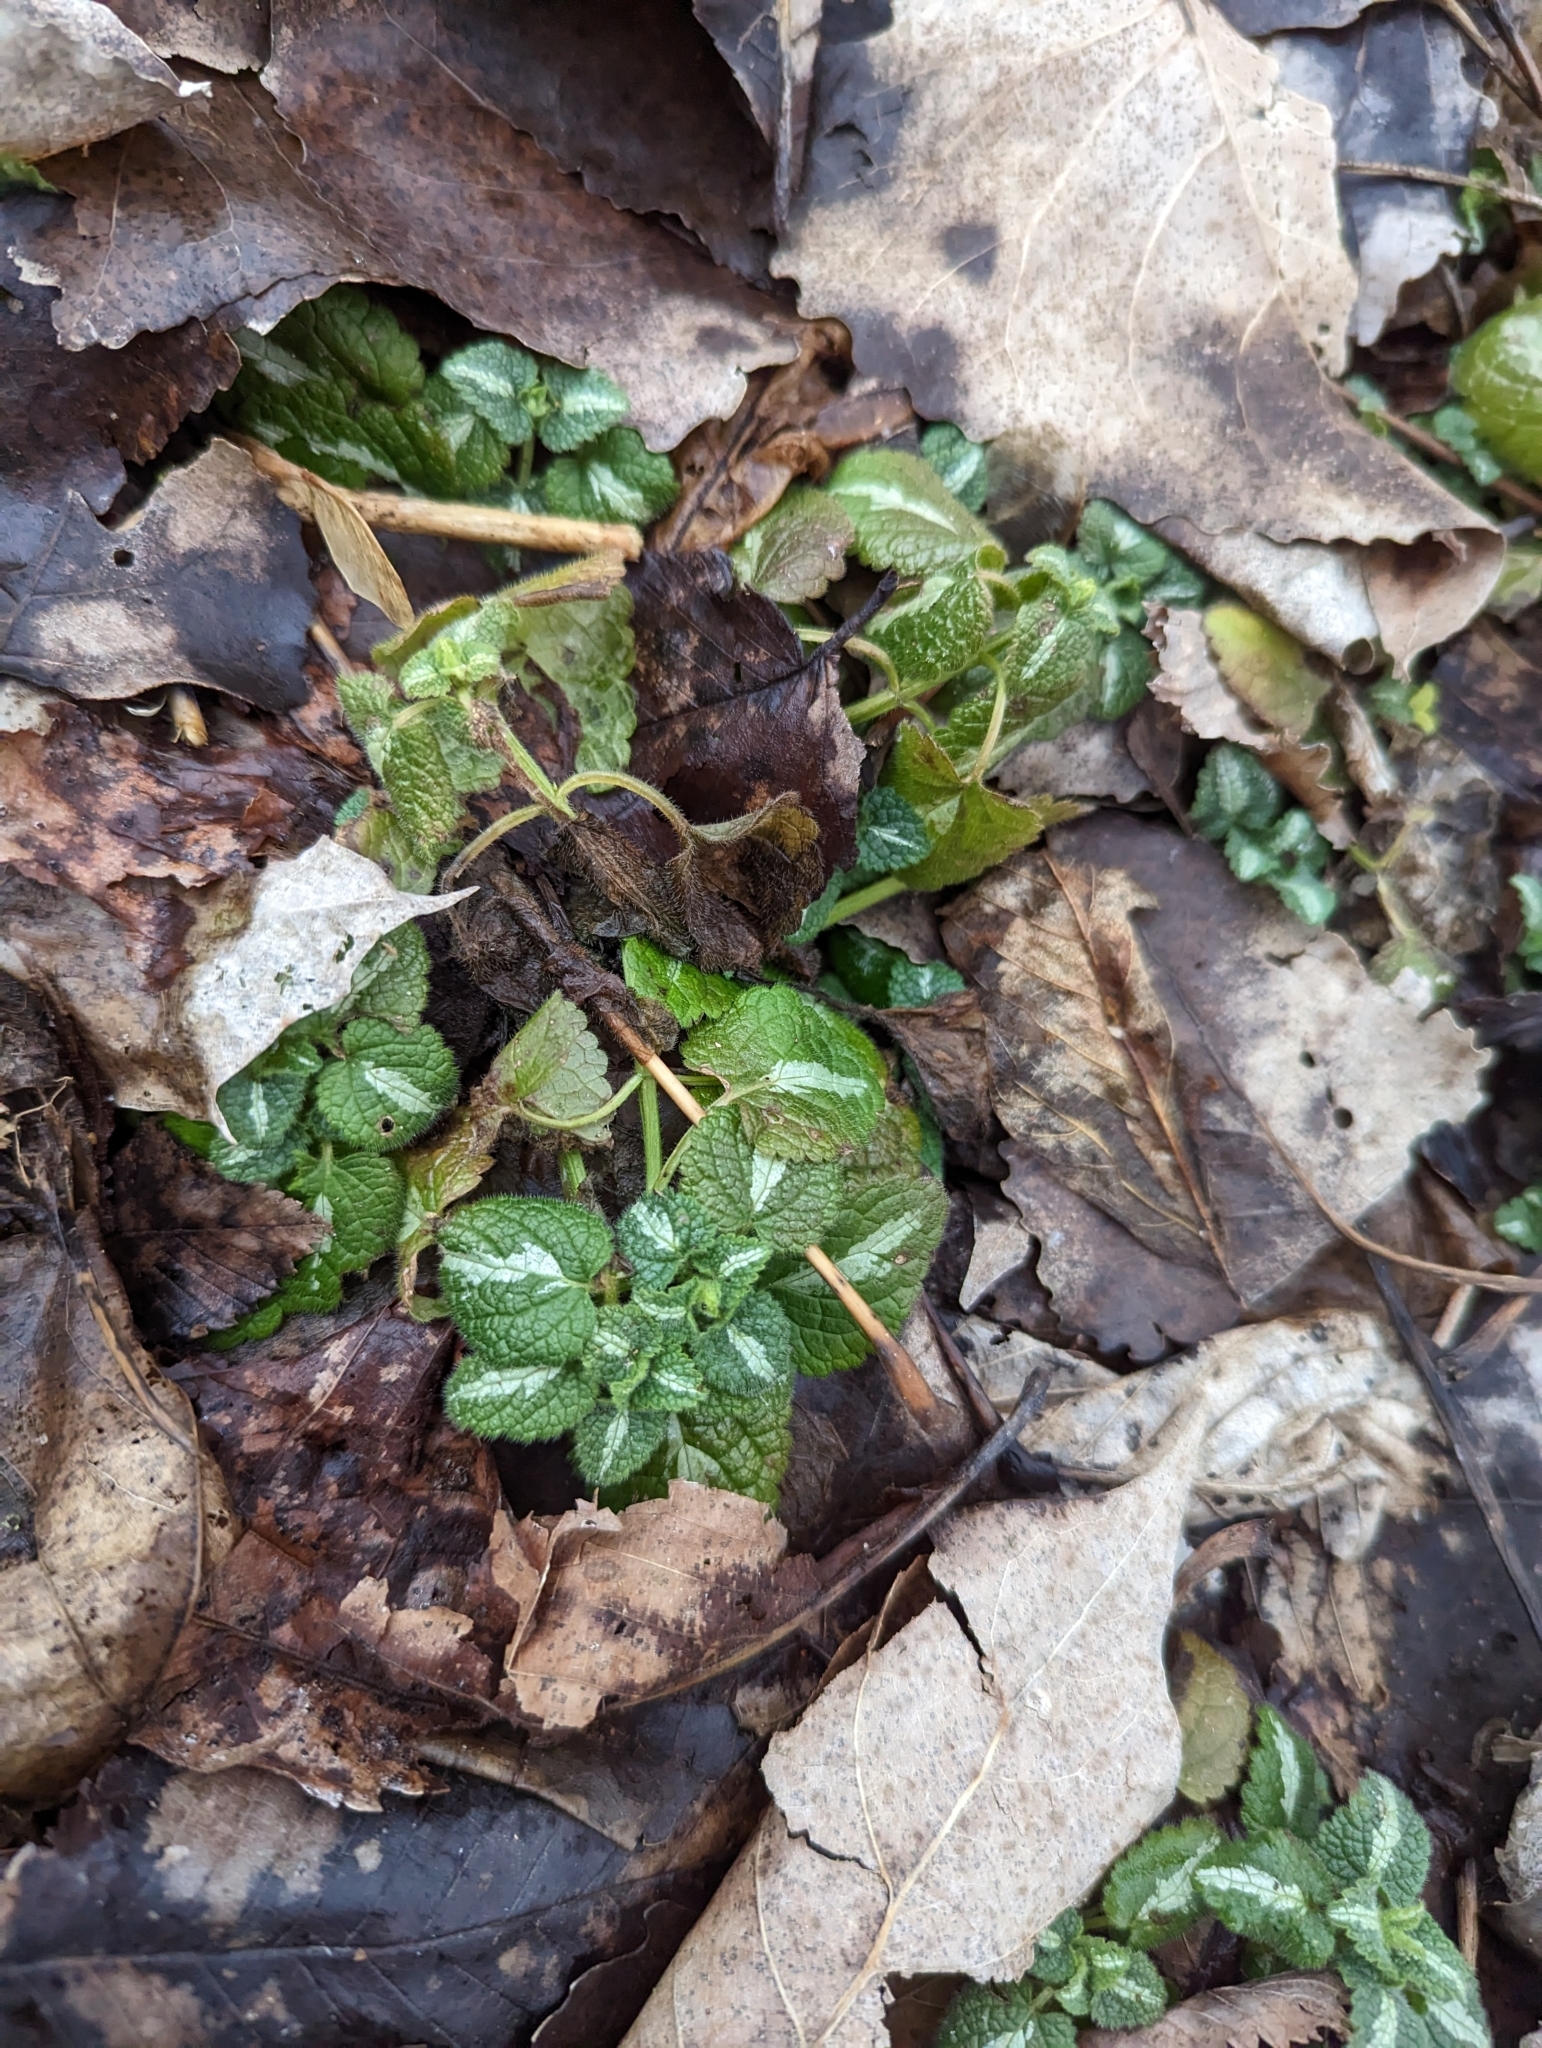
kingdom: Plantae
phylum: Tracheophyta
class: Magnoliopsida
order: Lamiales
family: Lamiaceae
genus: Lamium
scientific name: Lamium maculatum
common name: Spotted dead-nettle
